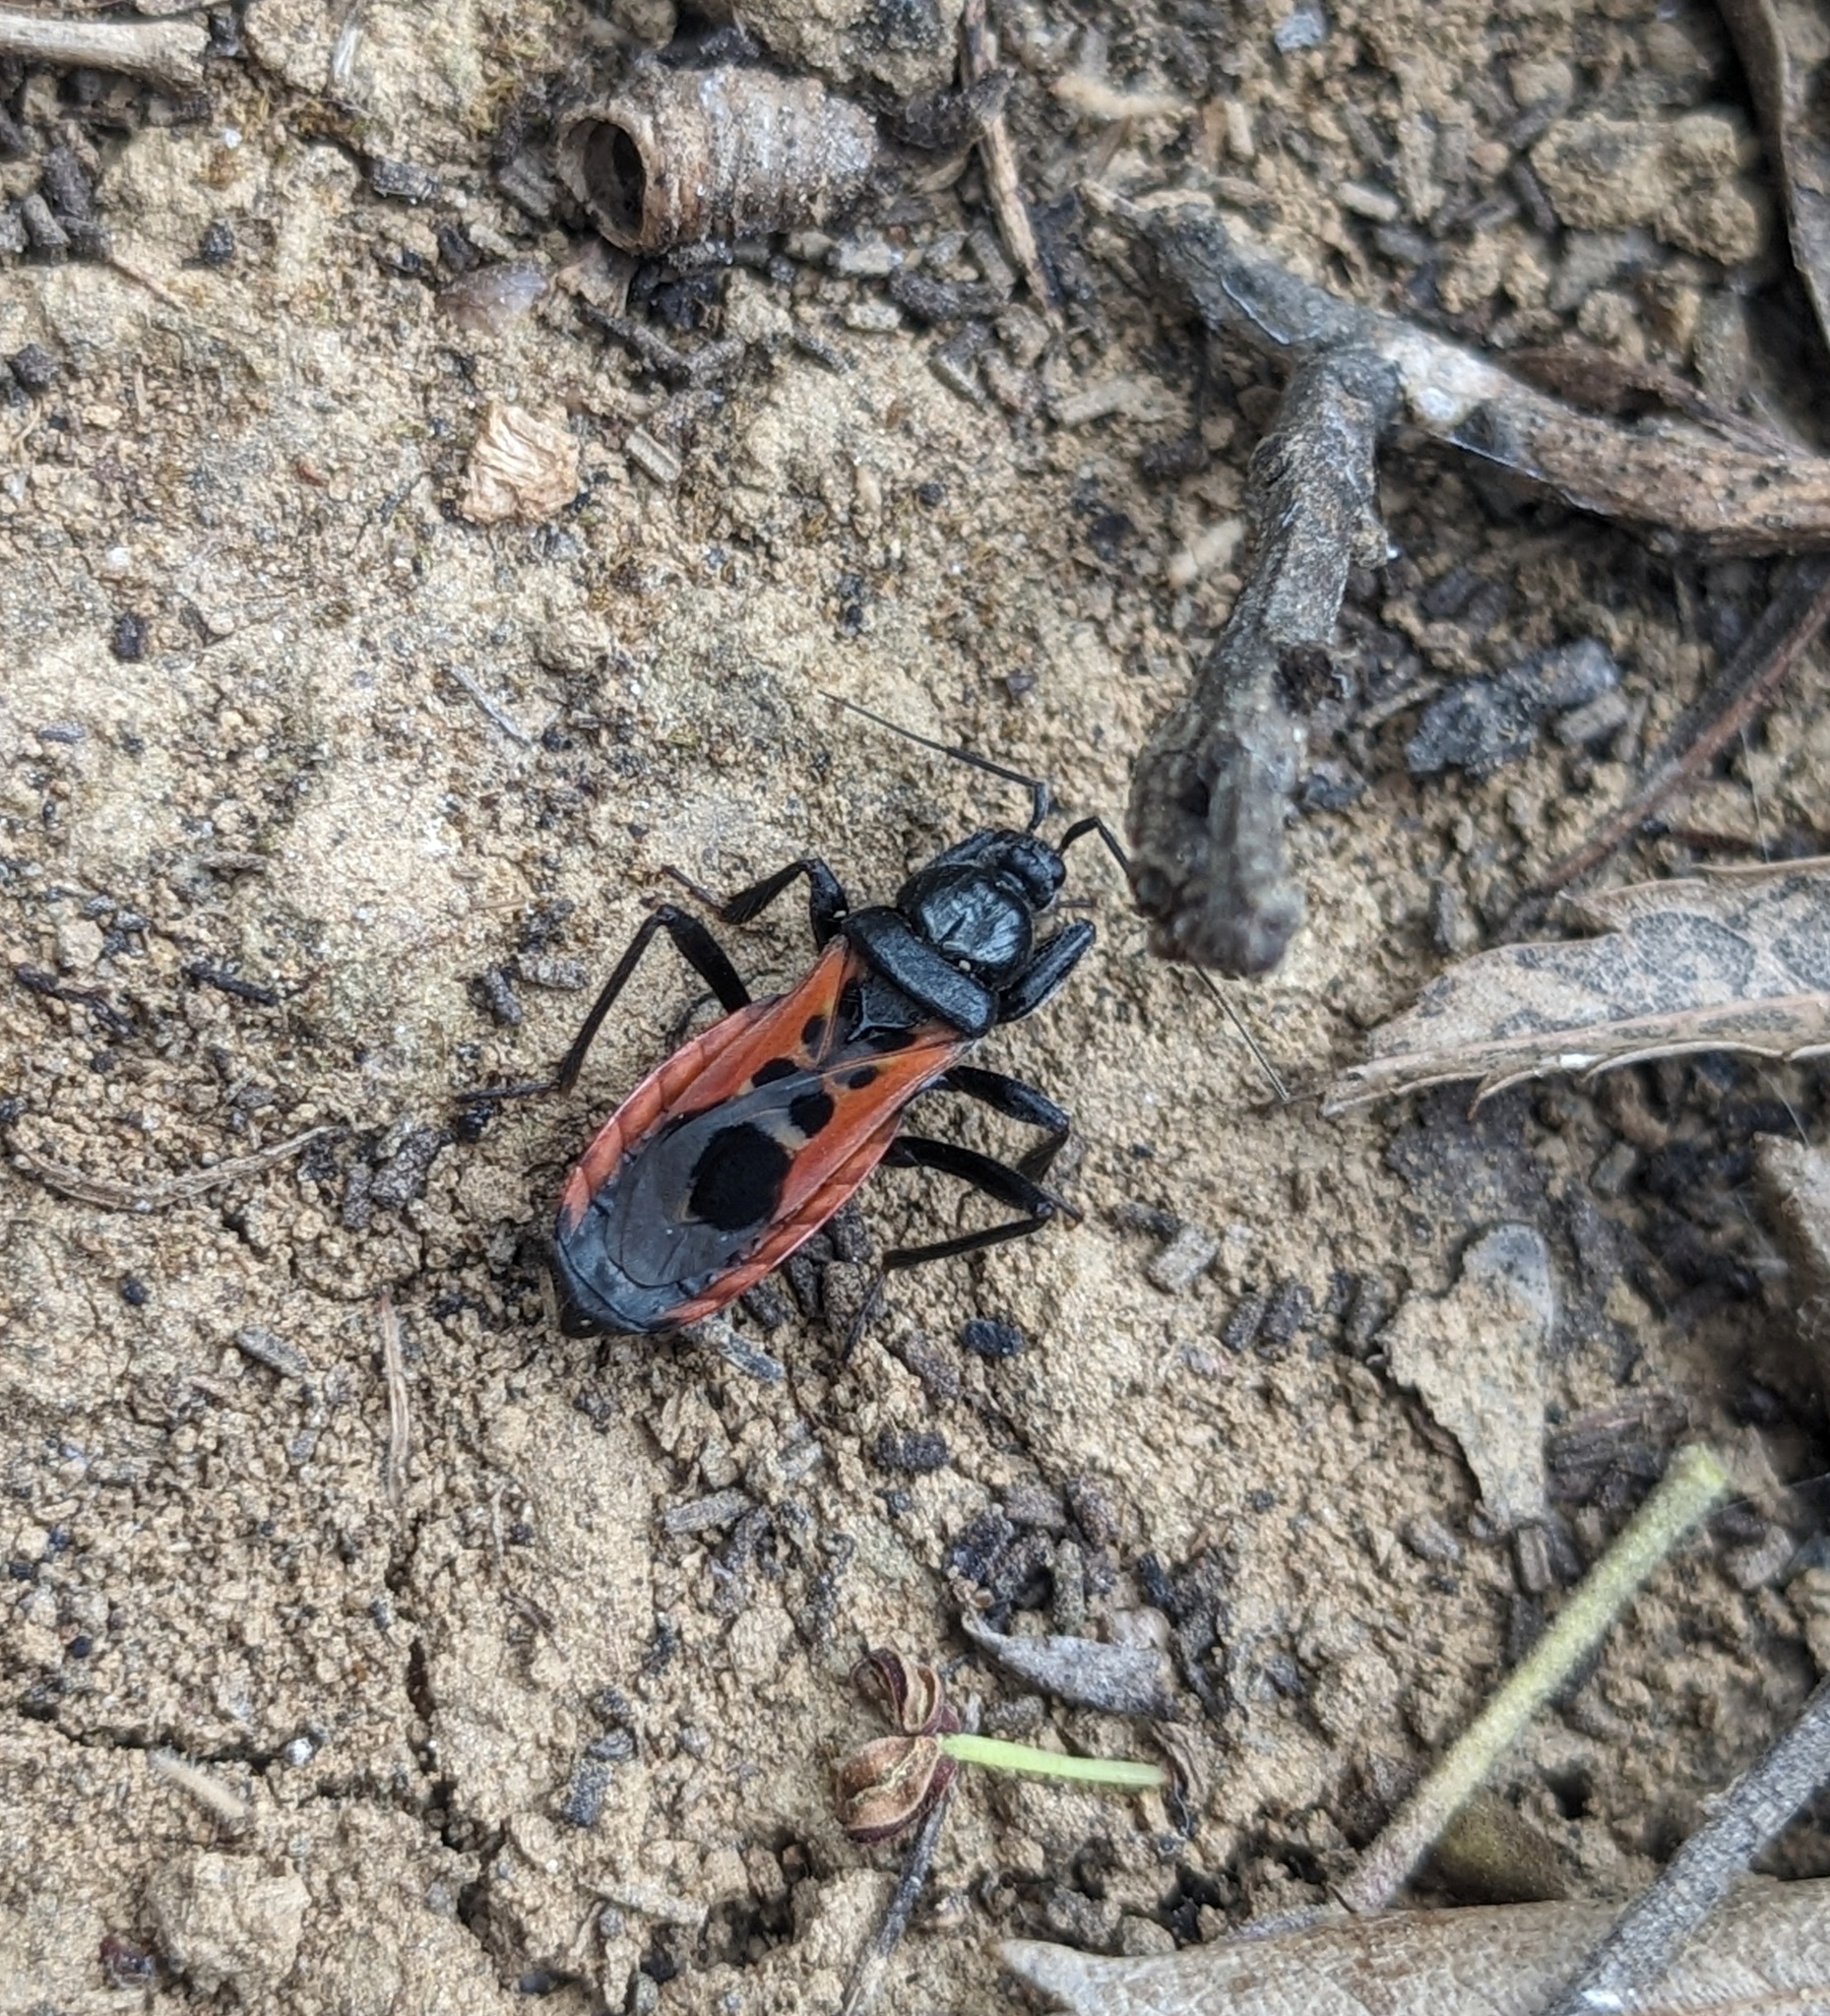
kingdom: Animalia
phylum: Arthropoda
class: Insecta
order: Hemiptera
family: Reduviidae
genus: Peirates
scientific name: Peirates stridulus
